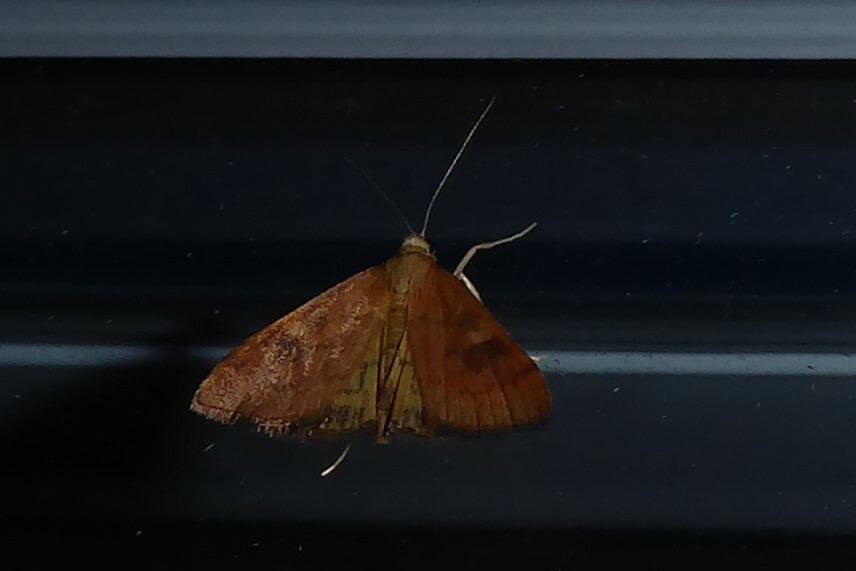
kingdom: Animalia
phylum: Arthropoda
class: Insecta
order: Lepidoptera
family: Crambidae
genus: Udea
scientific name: Udea Mnesictena flavidalis
